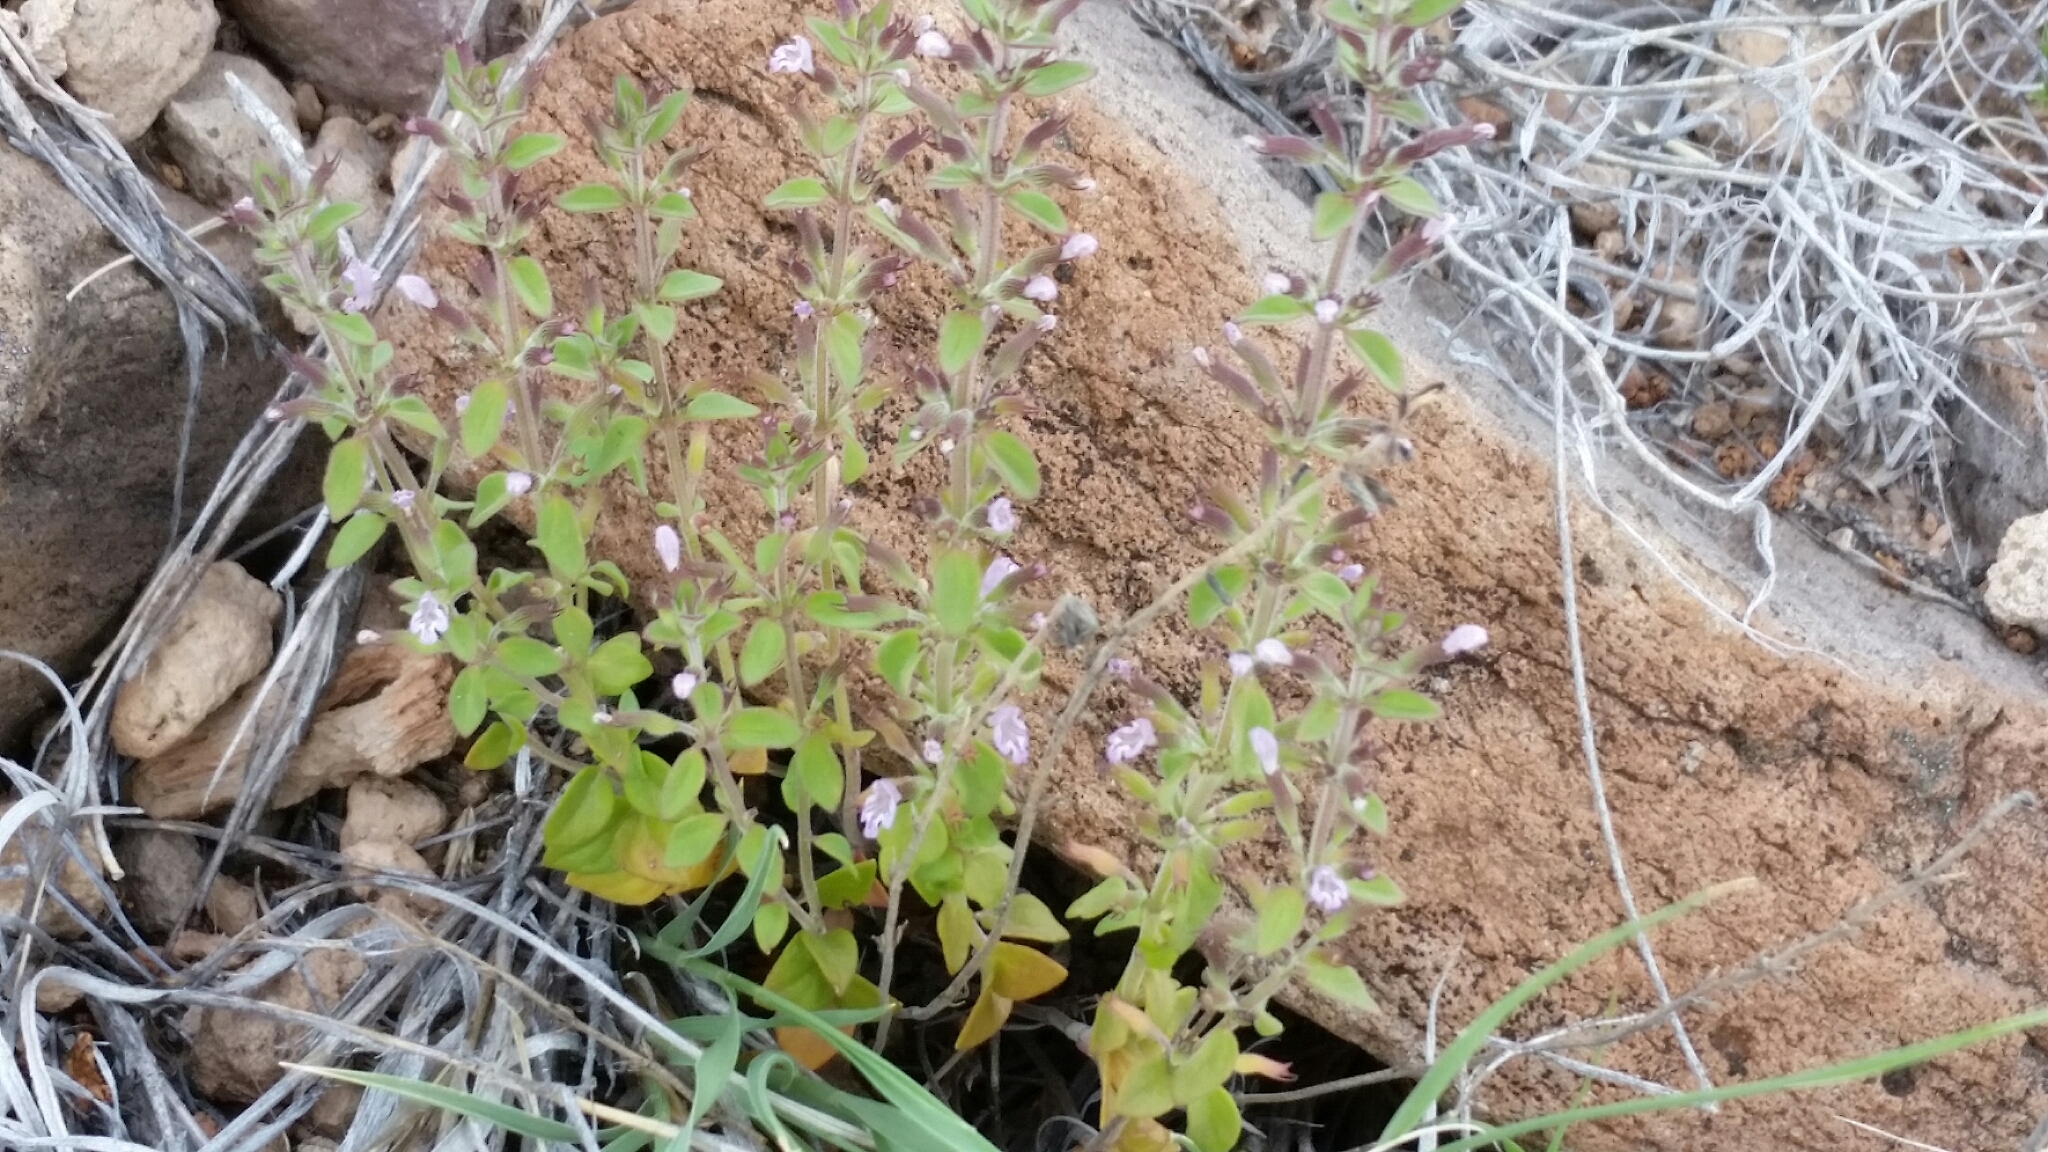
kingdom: Plantae
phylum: Tracheophyta
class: Magnoliopsida
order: Lamiales
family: Lamiaceae
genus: Hedeoma
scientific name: Hedeoma nana
